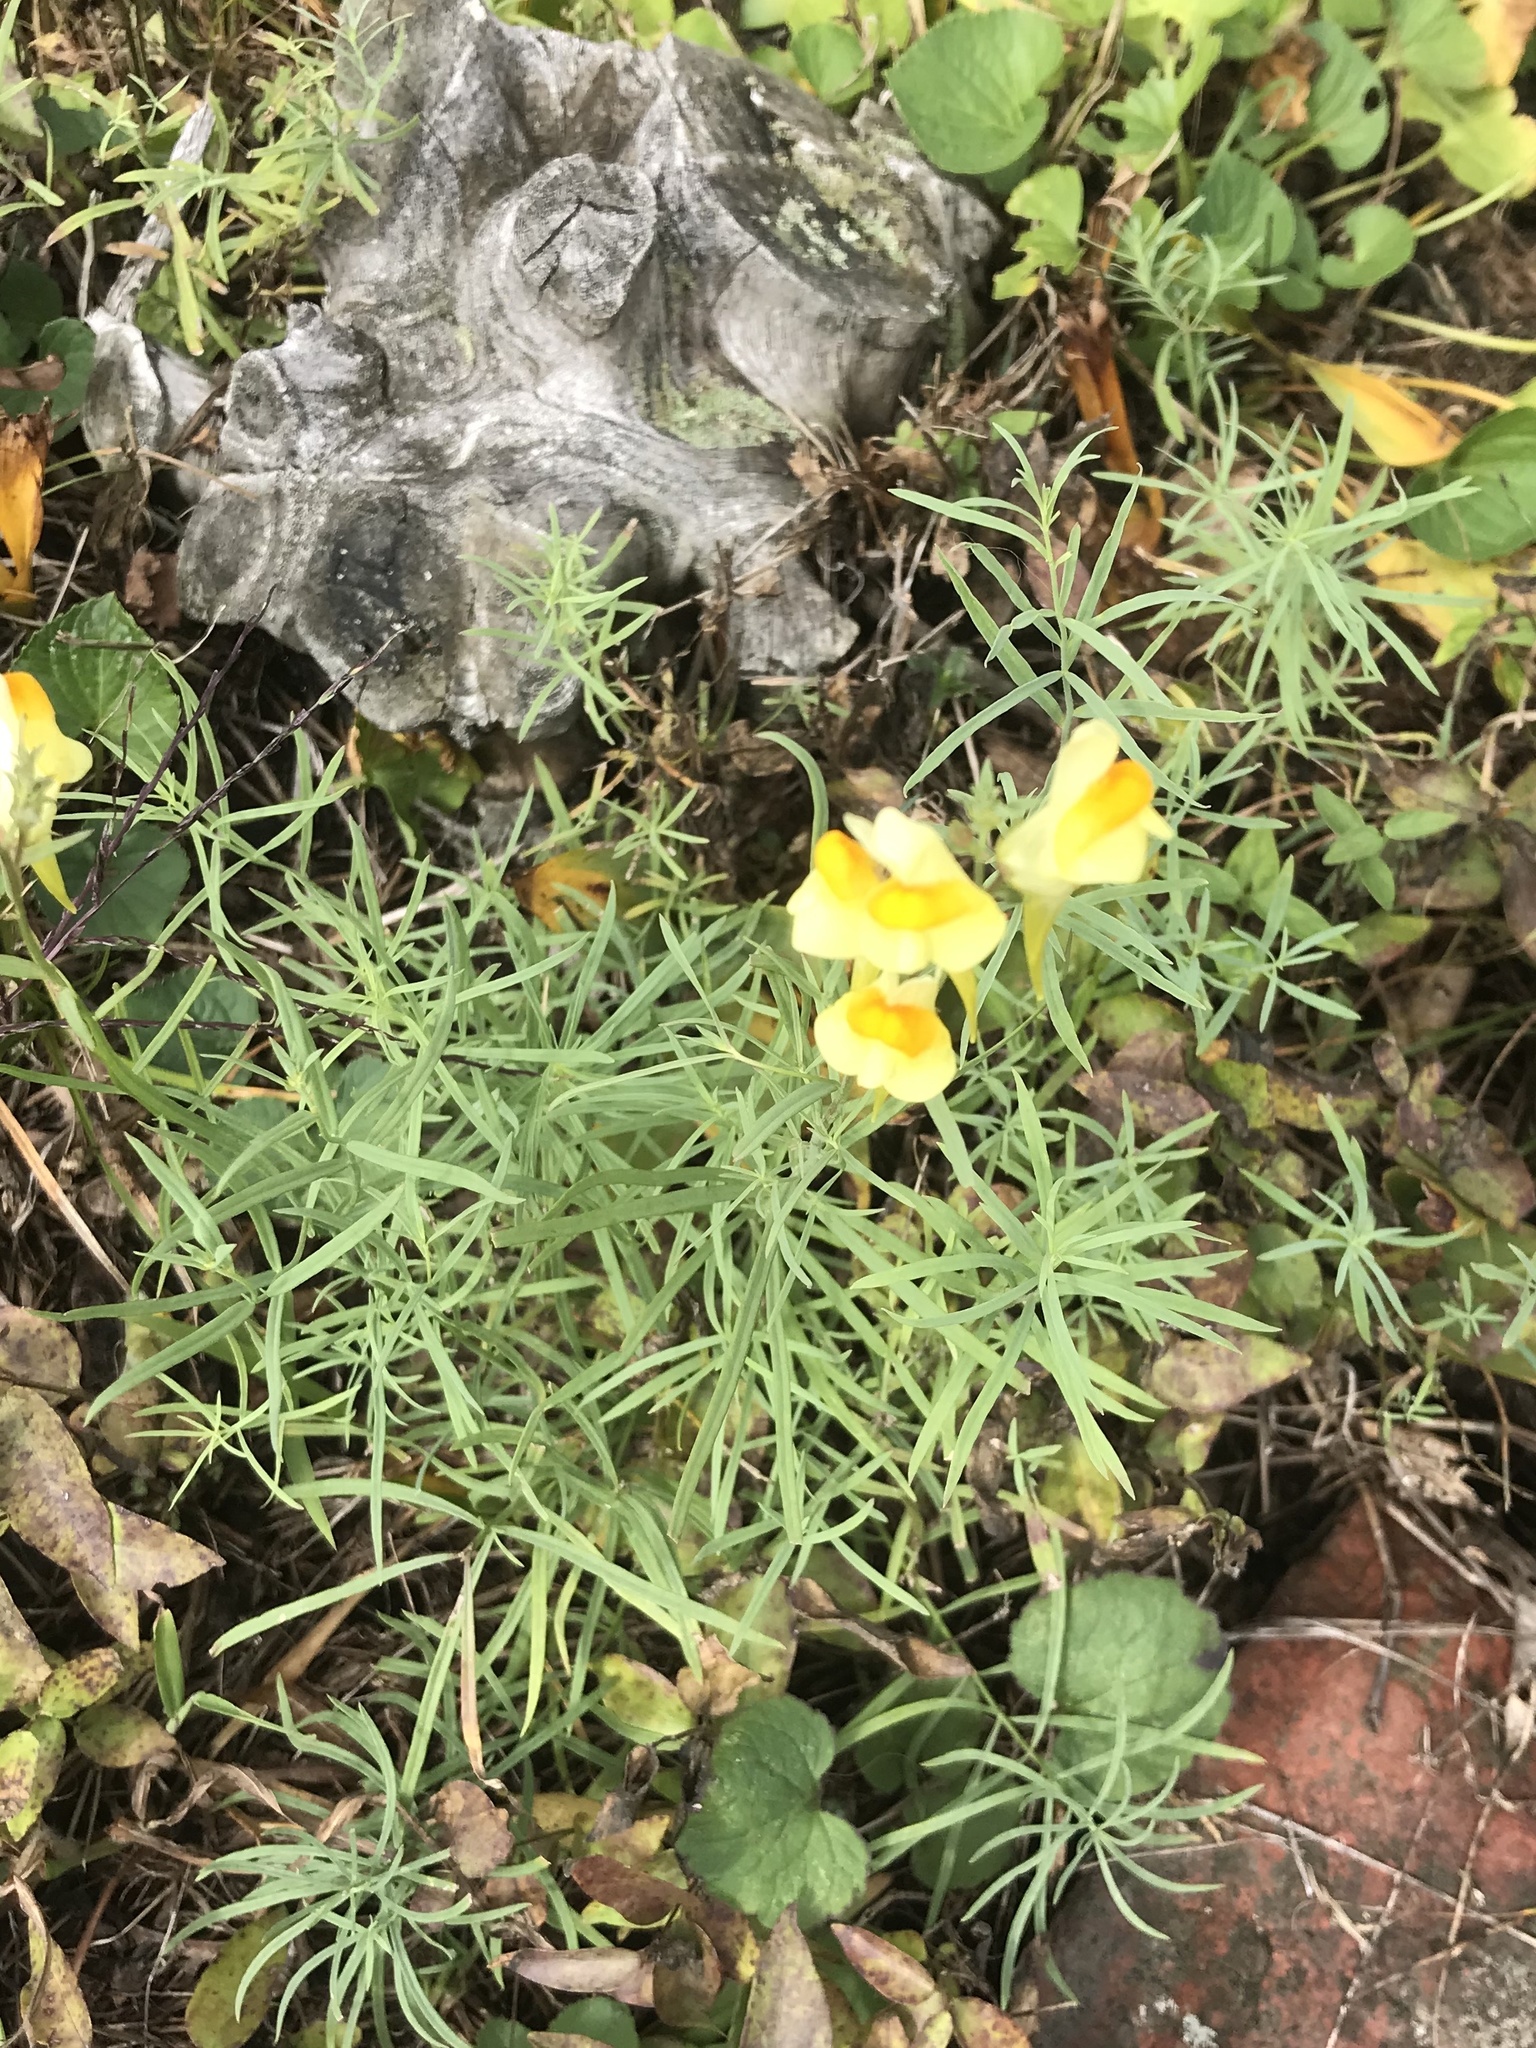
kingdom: Plantae
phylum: Tracheophyta
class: Magnoliopsida
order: Lamiales
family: Plantaginaceae
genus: Linaria
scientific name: Linaria vulgaris
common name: Butter and eggs
